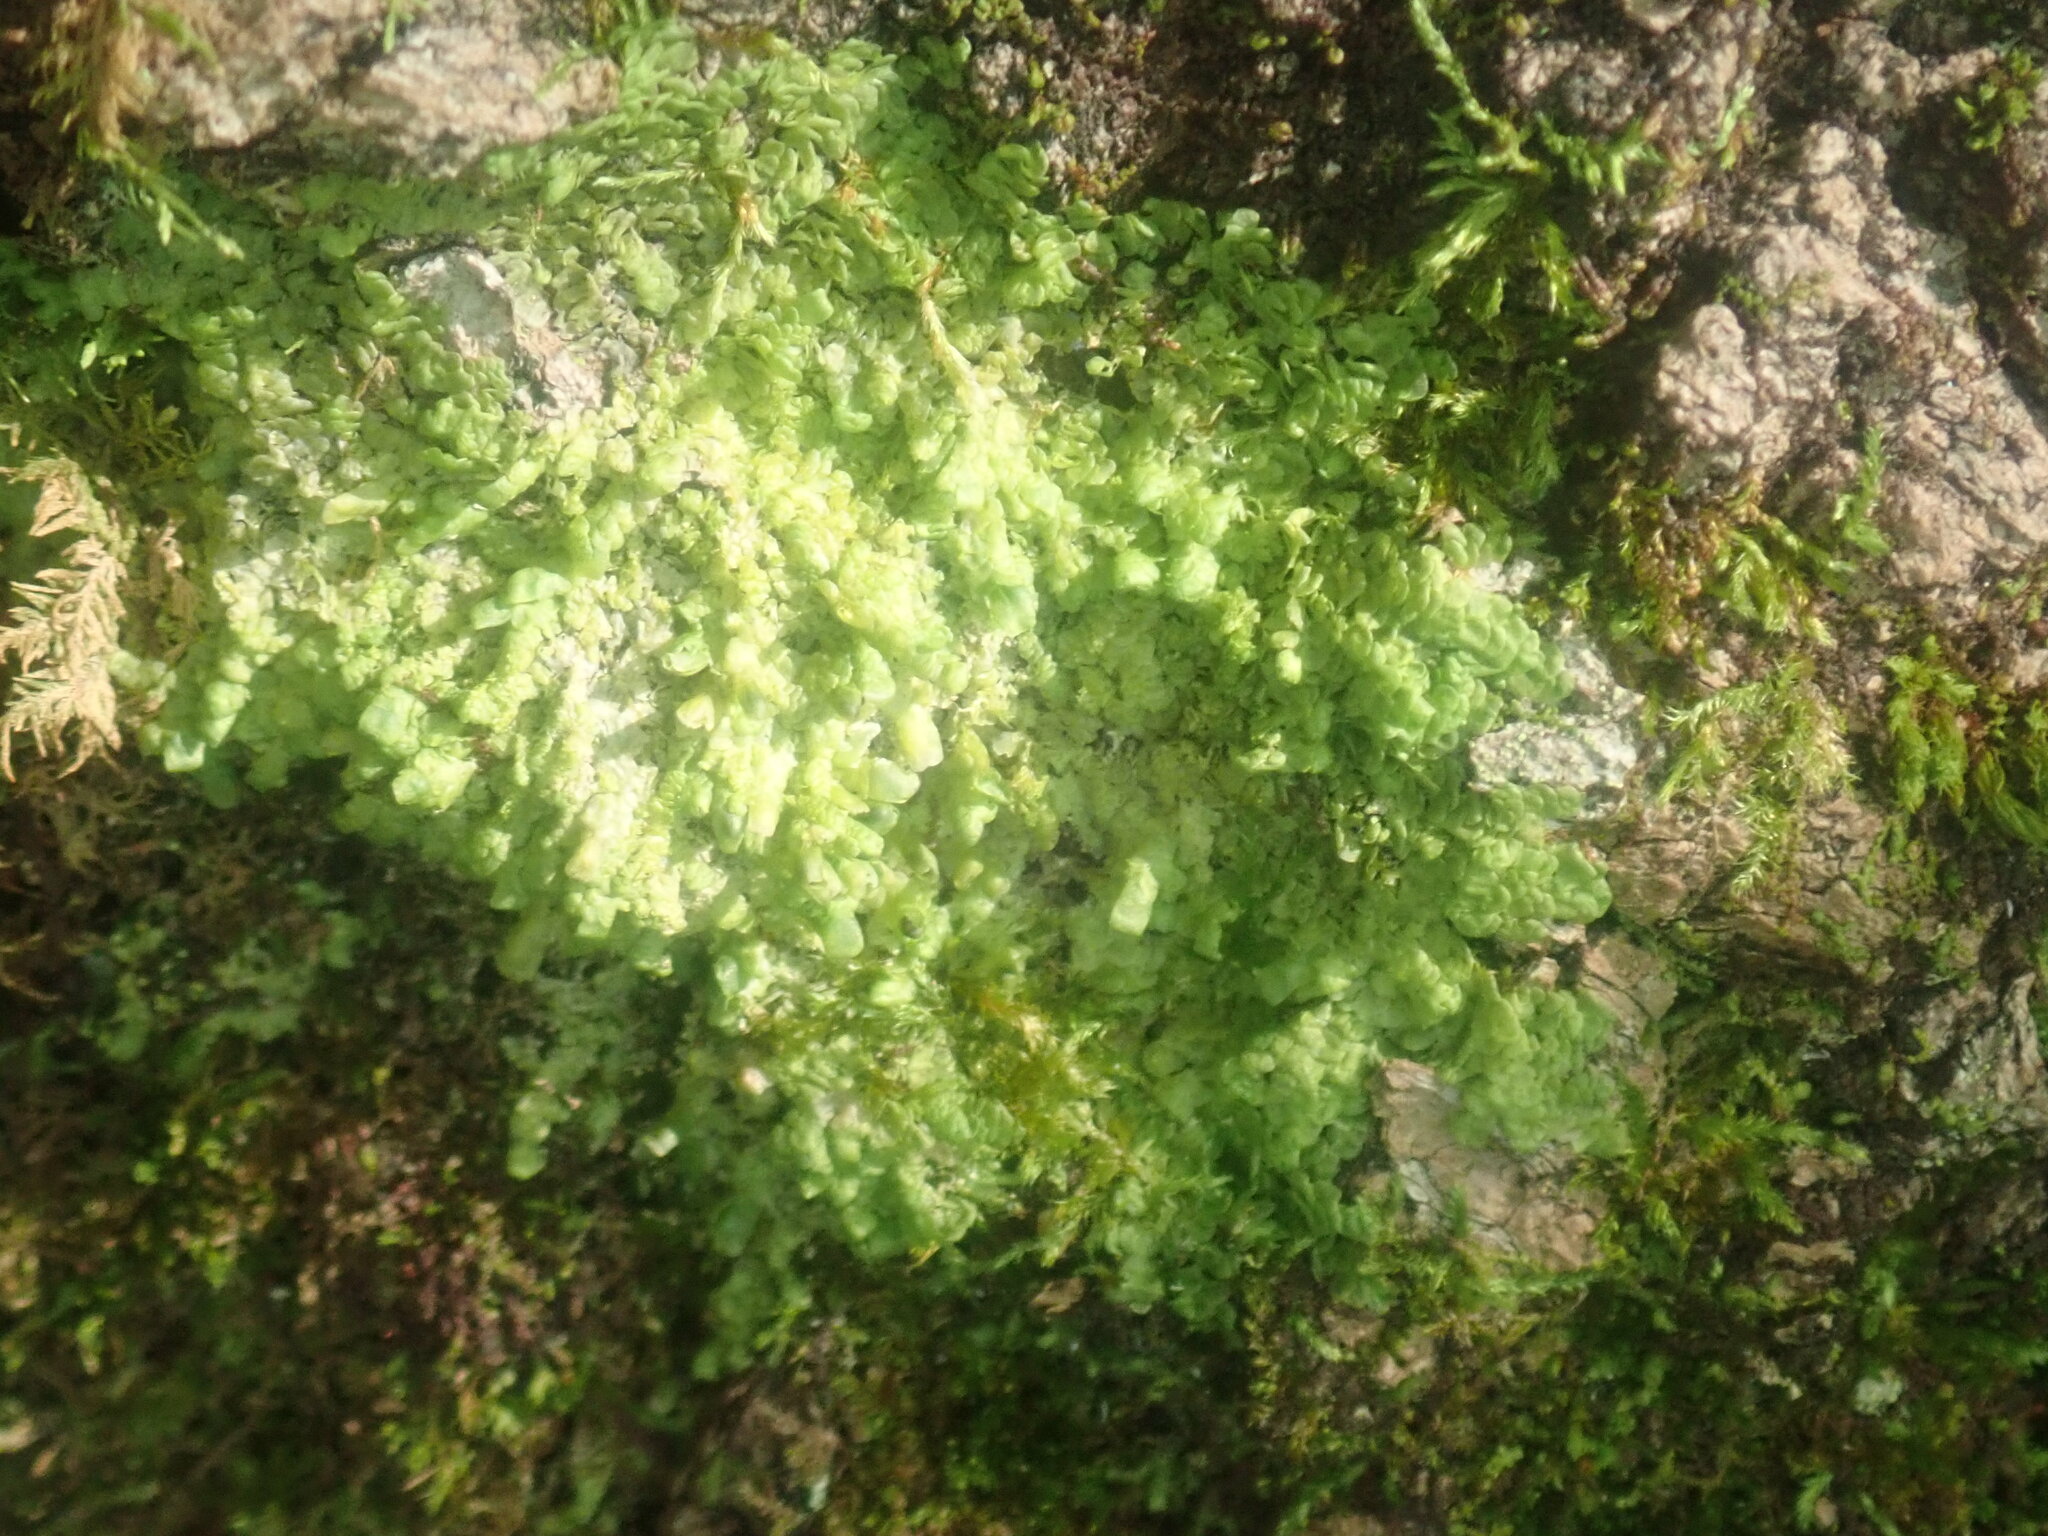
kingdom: Plantae
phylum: Marchantiophyta
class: Jungermanniopsida
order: Porellales
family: Radulaceae
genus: Radula
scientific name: Radula complanata
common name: Flat-leaved scalewort
